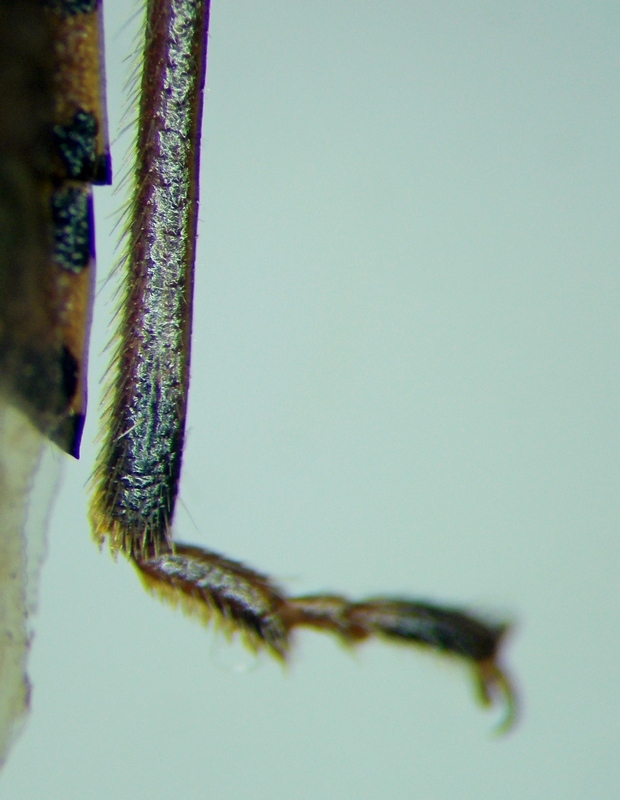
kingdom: Animalia
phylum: Arthropoda
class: Insecta
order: Hemiptera
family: Pentatomidae
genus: Rhaphigaster
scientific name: Rhaphigaster nebulosa
